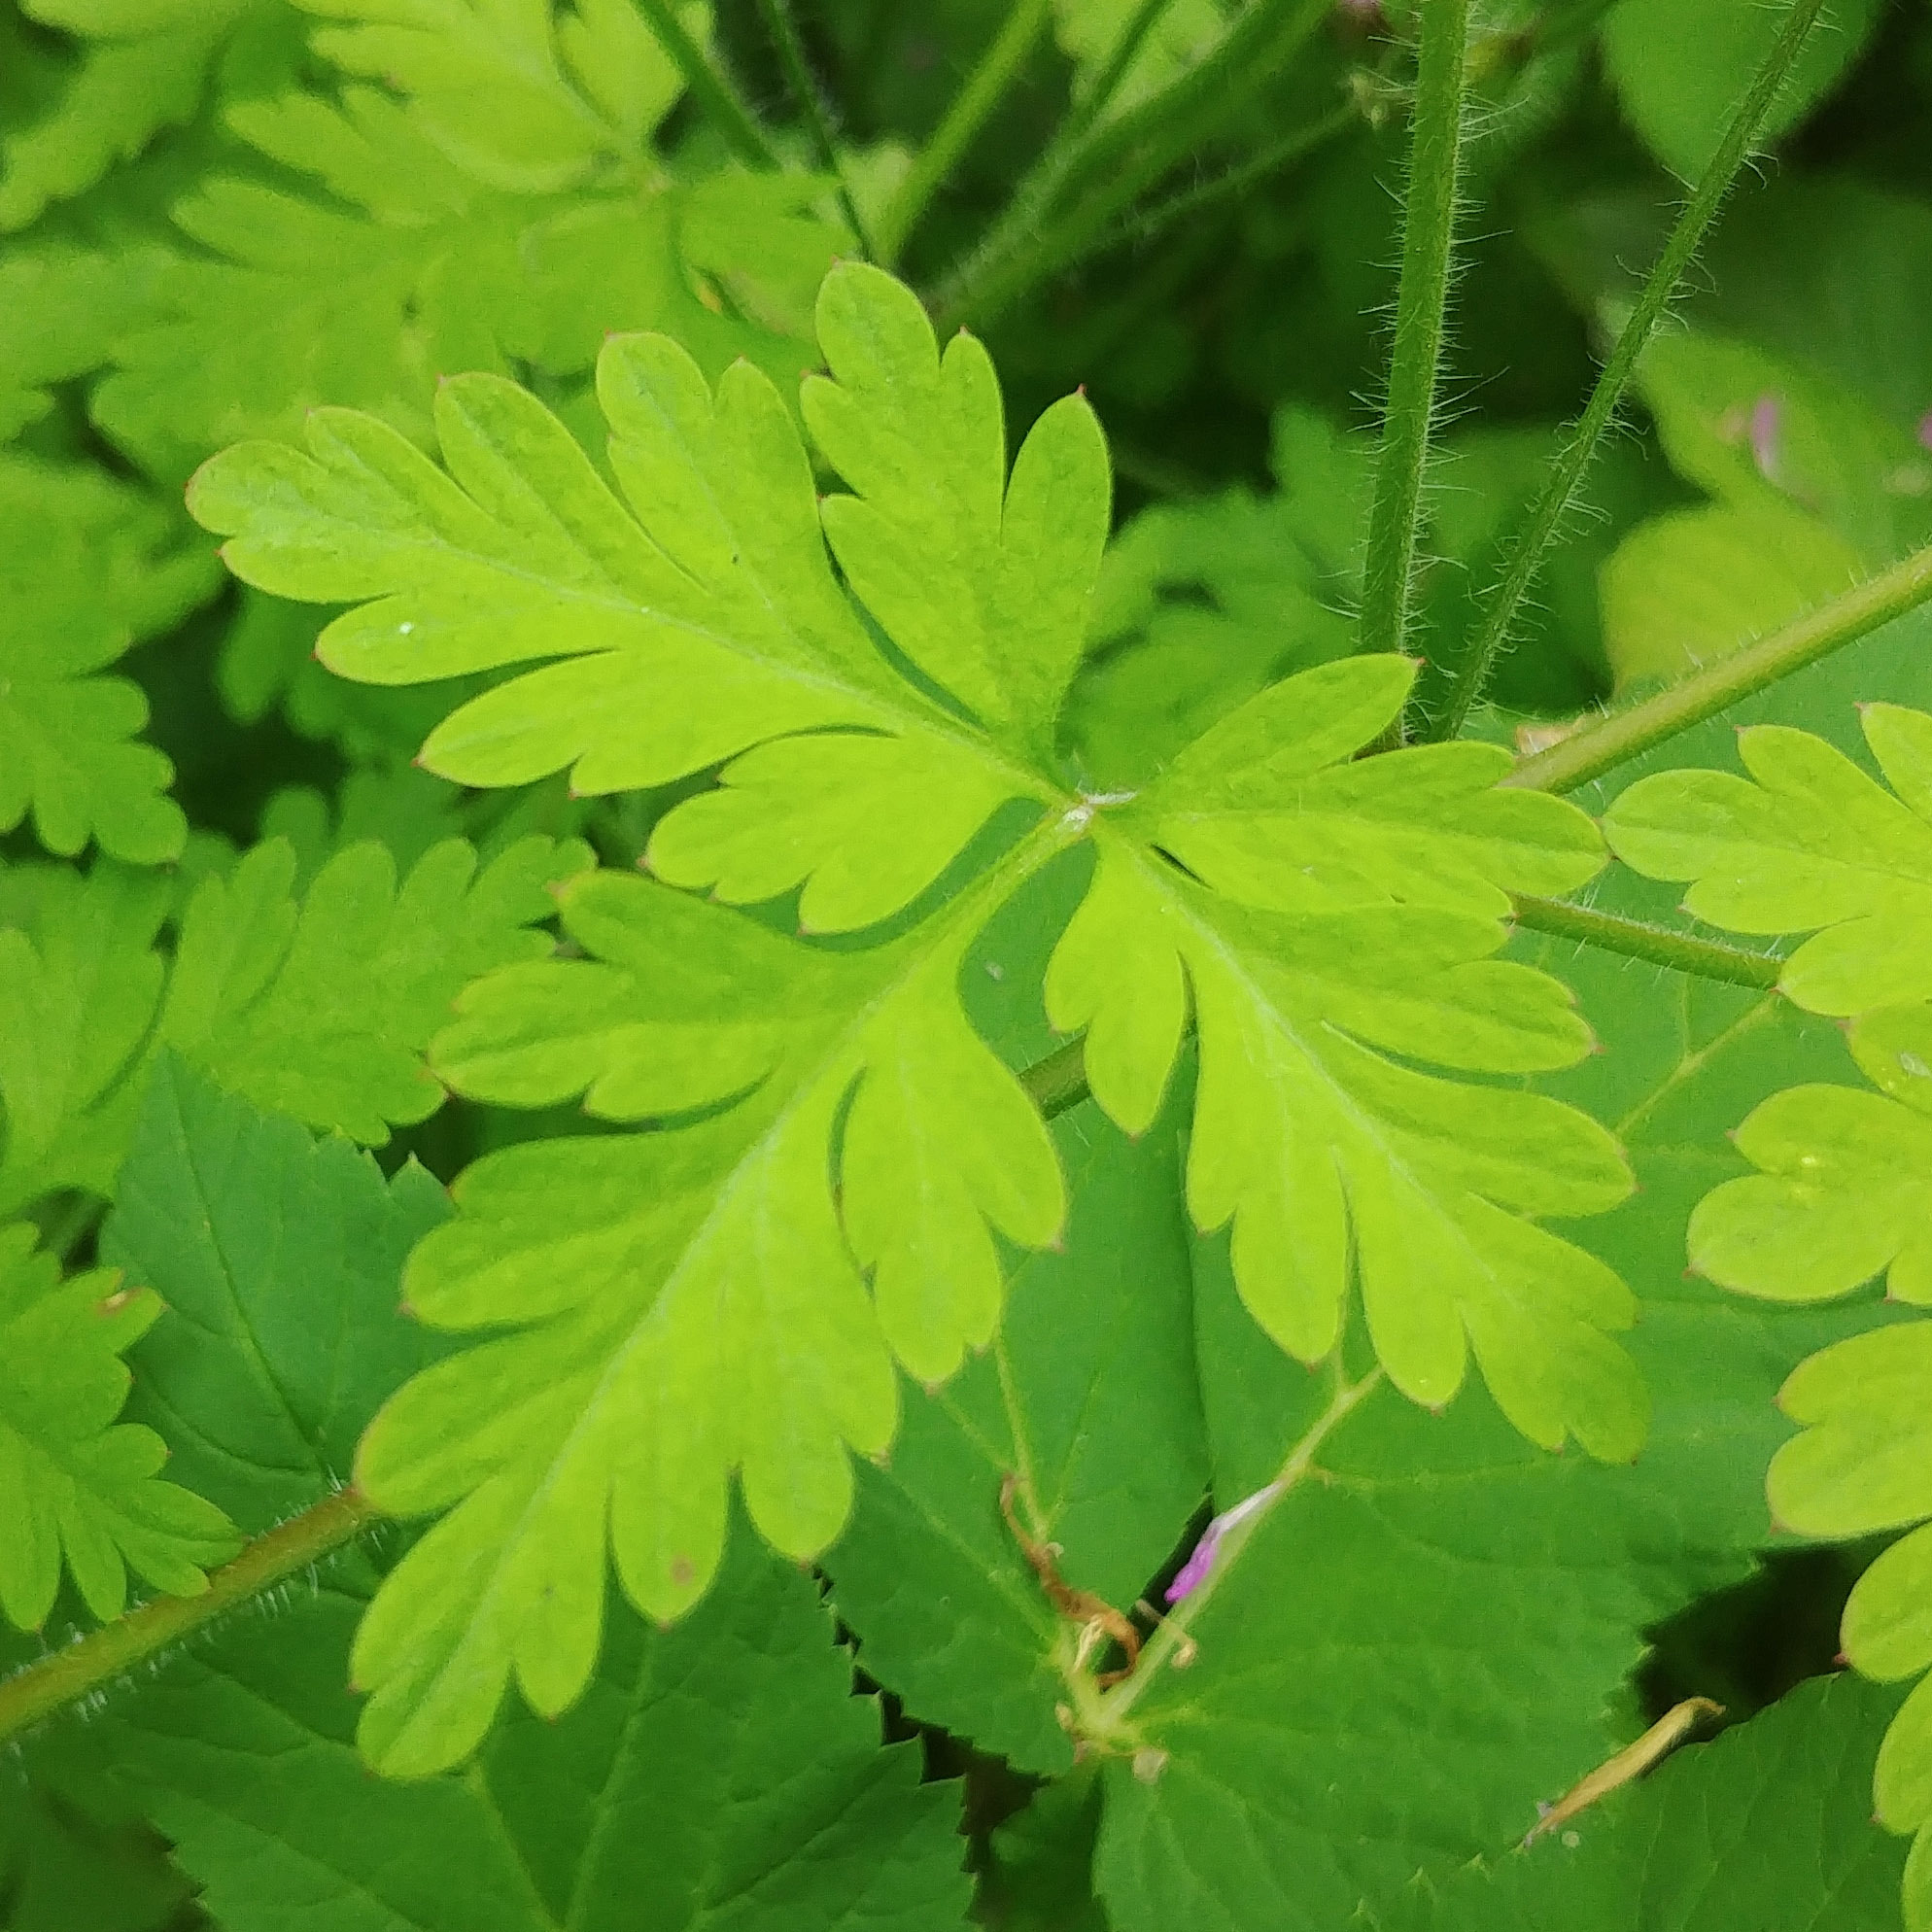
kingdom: Plantae
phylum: Tracheophyta
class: Magnoliopsida
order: Geraniales
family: Geraniaceae
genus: Geranium
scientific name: Geranium robertianum
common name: Herb-robert
